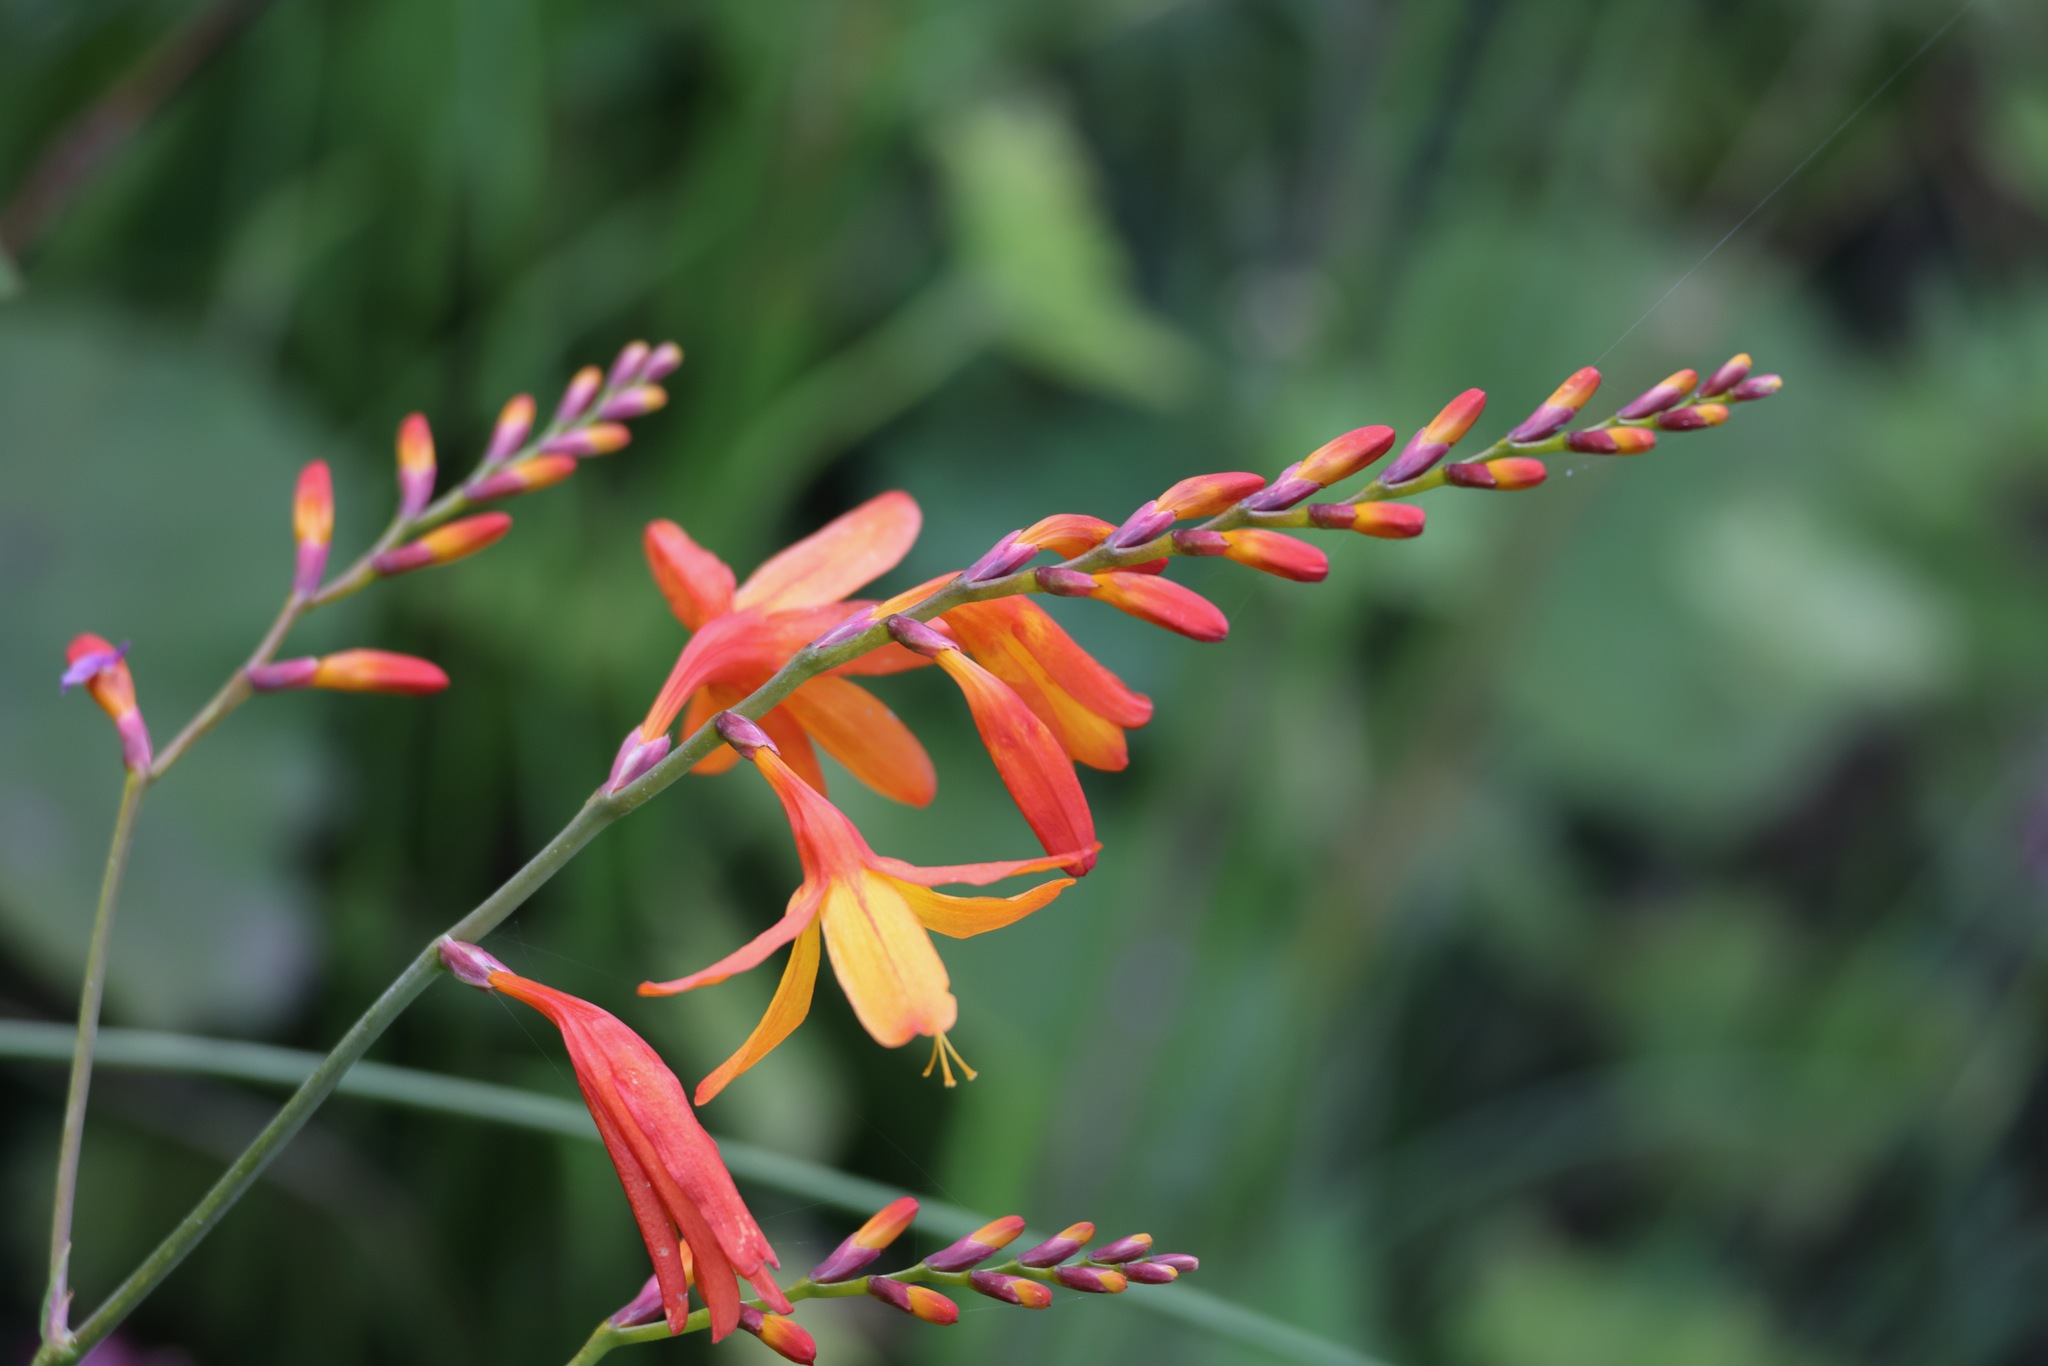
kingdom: Plantae
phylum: Tracheophyta
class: Liliopsida
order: Asparagales
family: Iridaceae
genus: Crocosmia
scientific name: Crocosmia crocosmiiflora
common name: Montbretia
